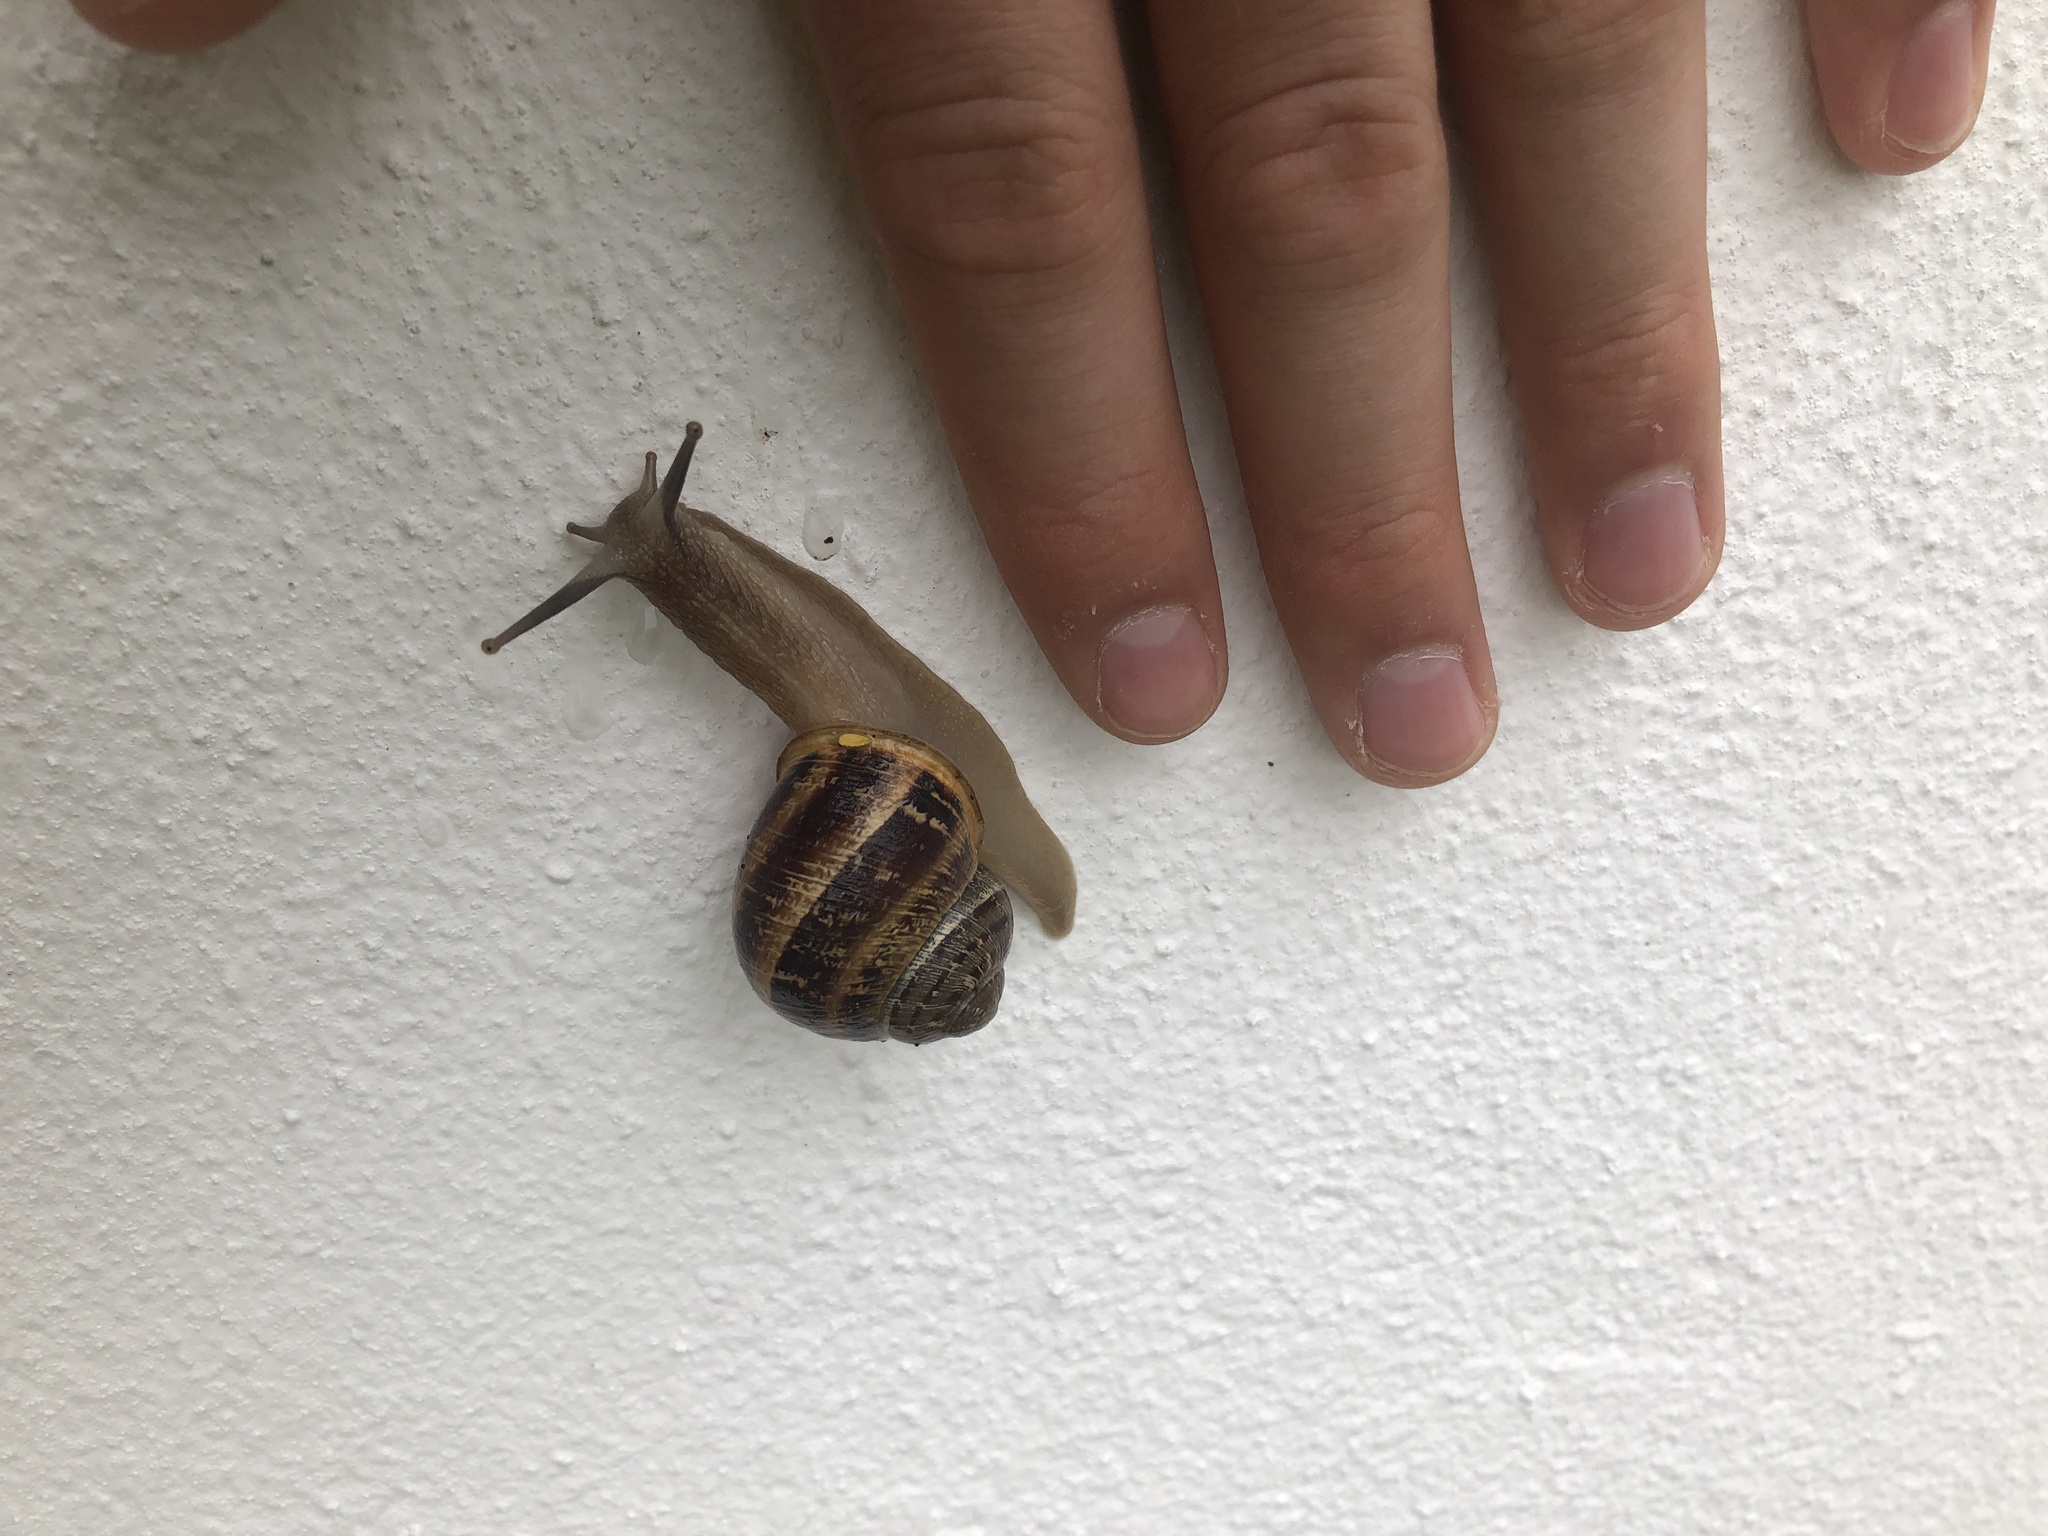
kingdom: Animalia
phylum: Mollusca
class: Gastropoda
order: Stylommatophora
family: Helicidae
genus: Cornu
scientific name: Cornu aspersum
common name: Brown garden snail
